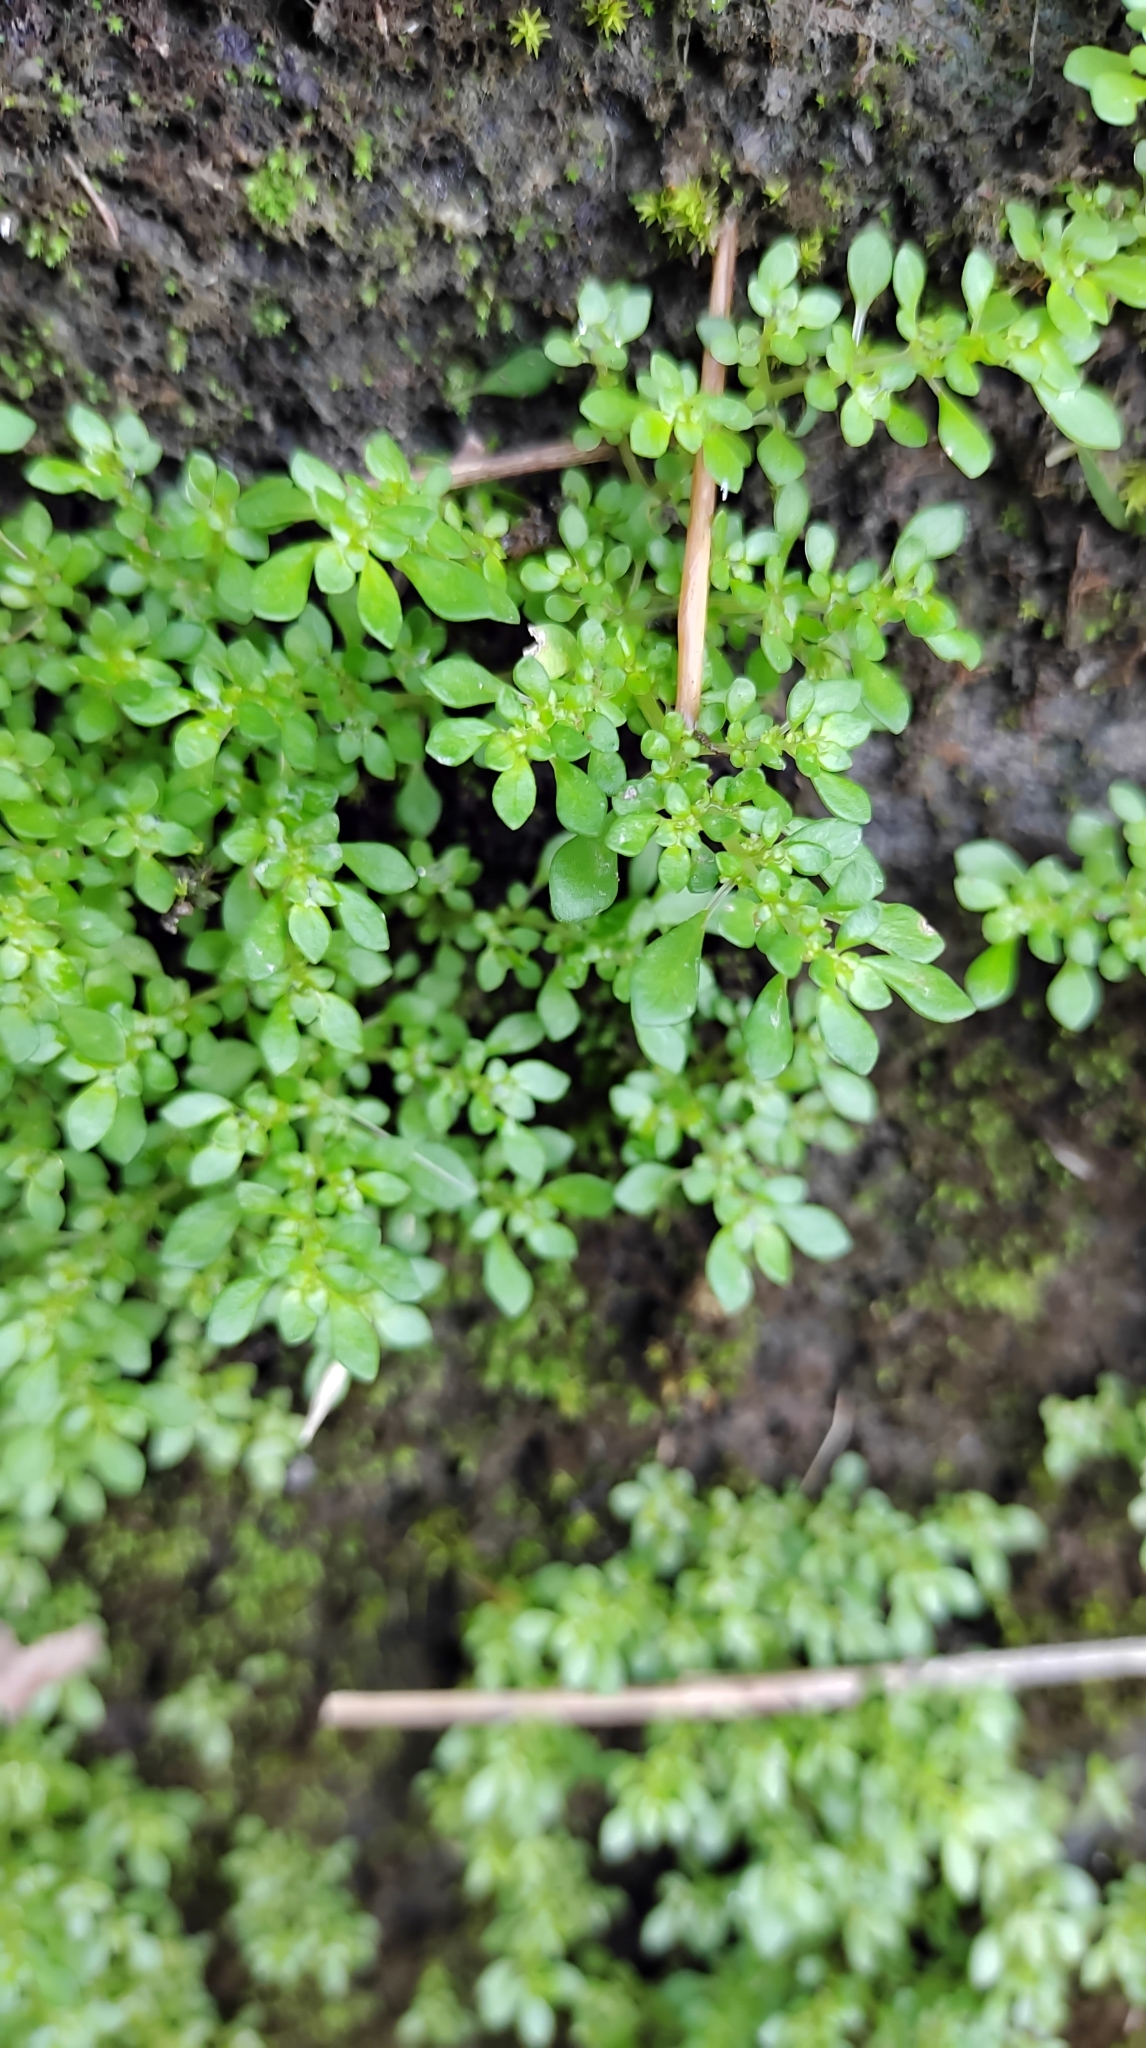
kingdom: Plantae
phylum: Tracheophyta
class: Magnoliopsida
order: Rosales
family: Urticaceae
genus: Pilea
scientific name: Pilea microphylla
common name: Artillery-plant
